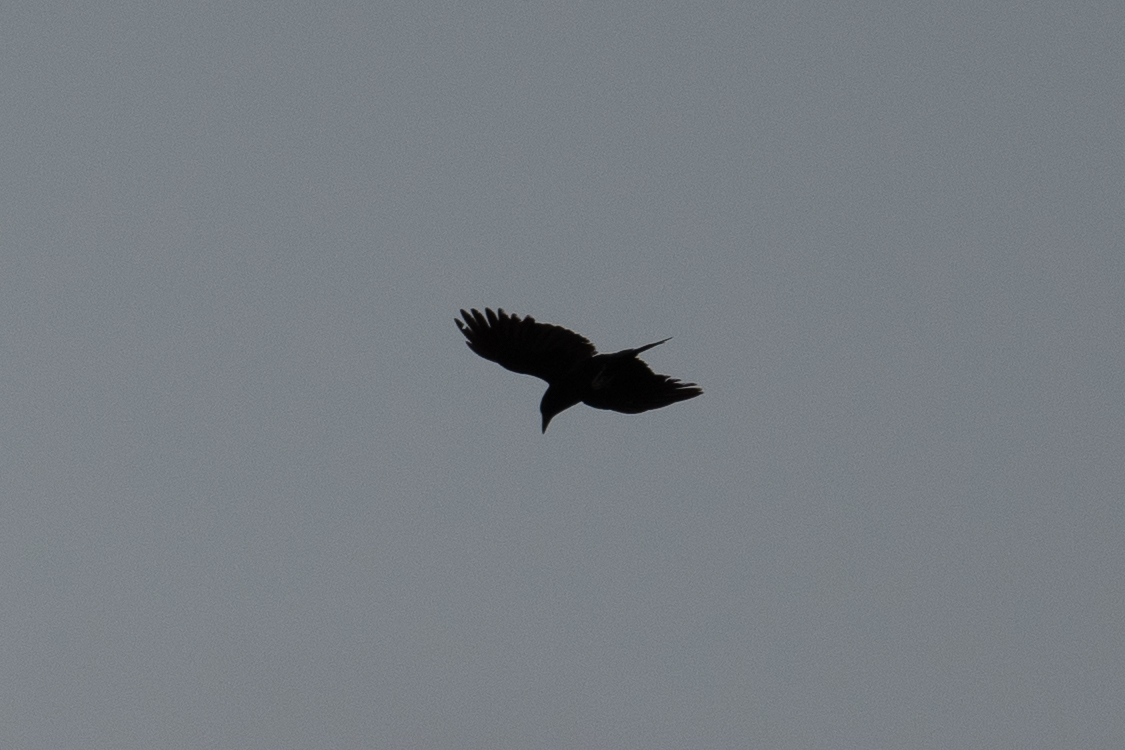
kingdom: Animalia
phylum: Chordata
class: Aves
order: Passeriformes
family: Corvidae
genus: Corvus
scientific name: Corvus brachyrhynchos
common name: American crow
